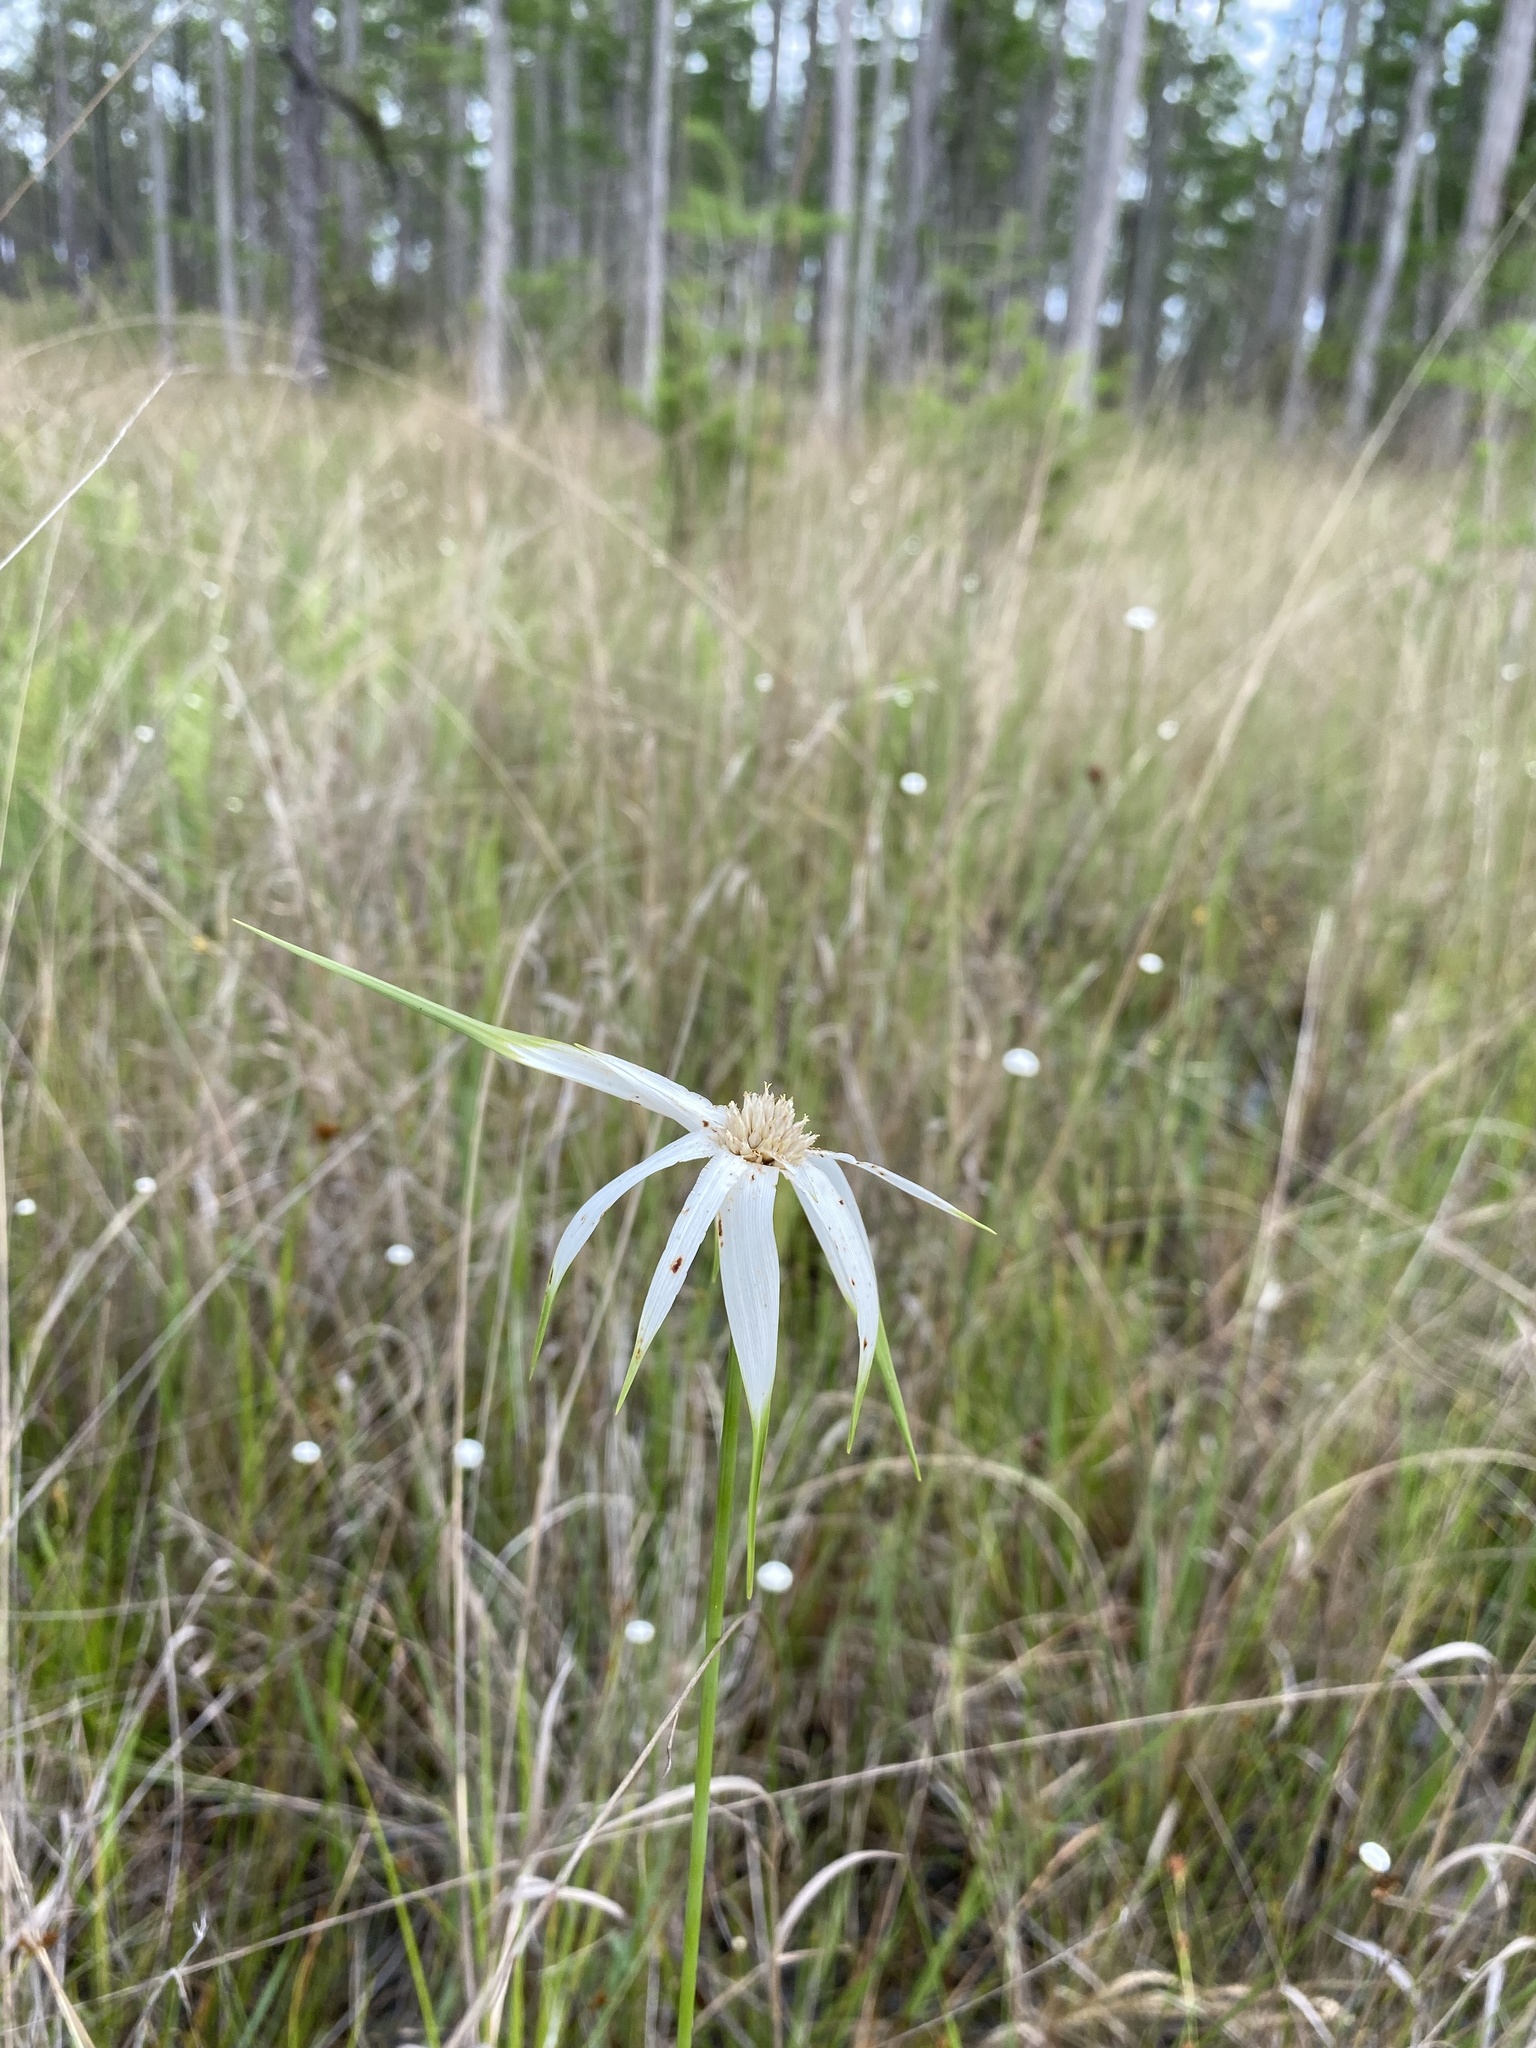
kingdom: Plantae
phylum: Tracheophyta
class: Liliopsida
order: Poales
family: Cyperaceae
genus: Rhynchospora
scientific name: Rhynchospora latifolia
